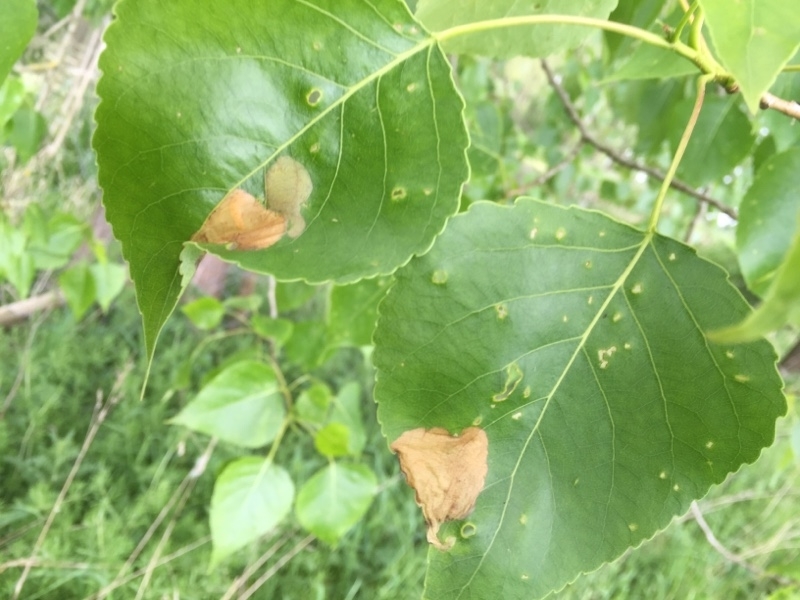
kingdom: Plantae
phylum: Tracheophyta
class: Magnoliopsida
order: Malpighiales
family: Salicaceae
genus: Populus
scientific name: Populus canadensis
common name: Carolina poplar
